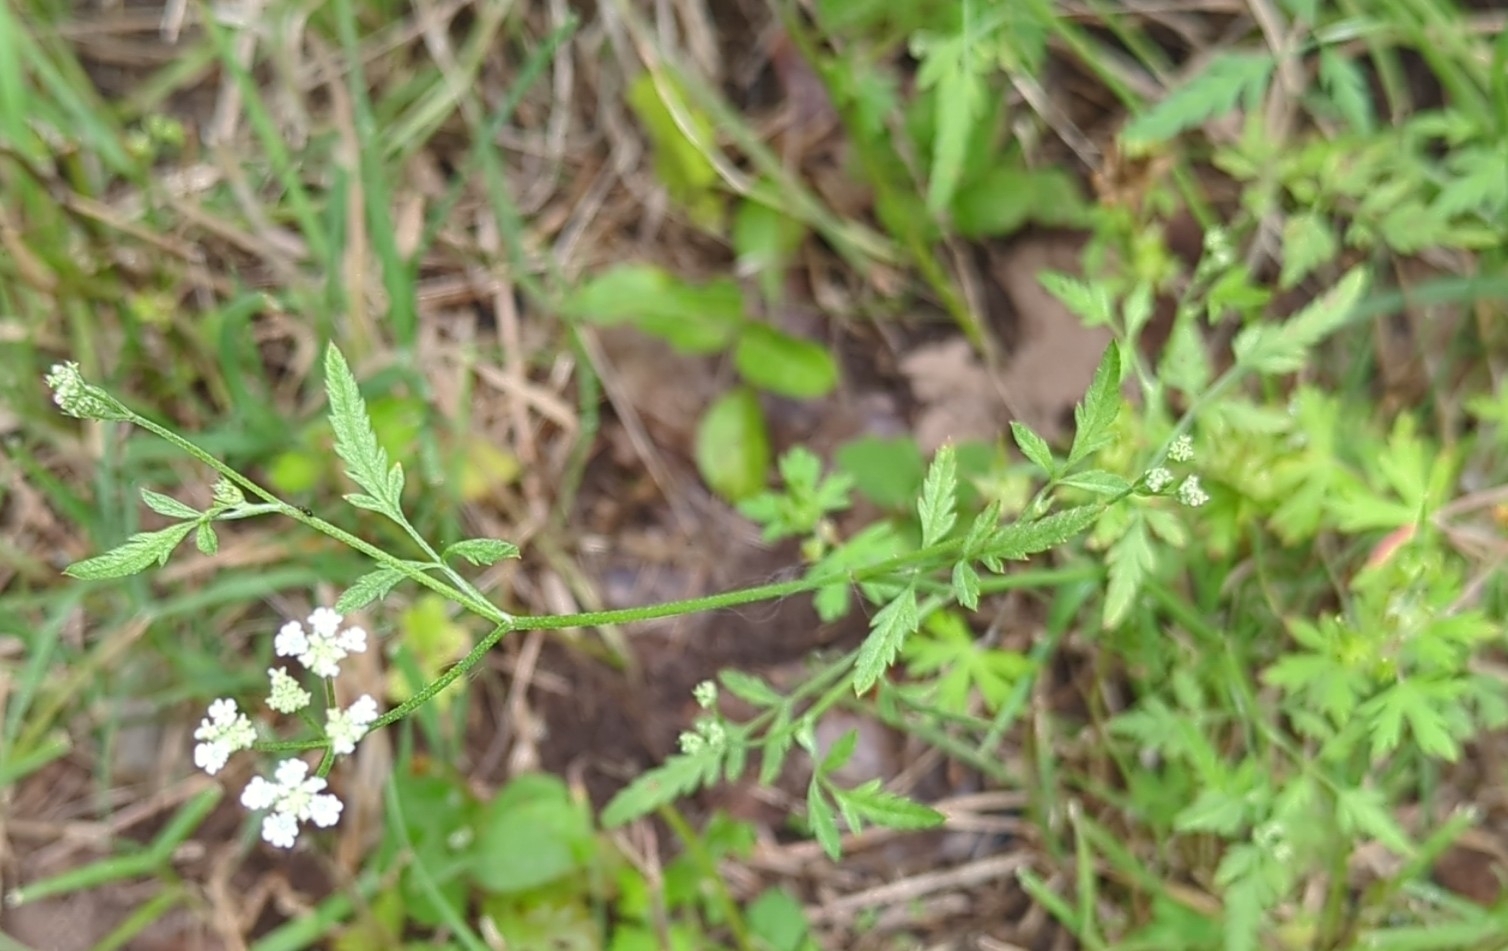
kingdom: Plantae
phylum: Tracheophyta
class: Magnoliopsida
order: Apiales
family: Apiaceae
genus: Torilis
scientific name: Torilis arvensis
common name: Spreading hedge-parsley
